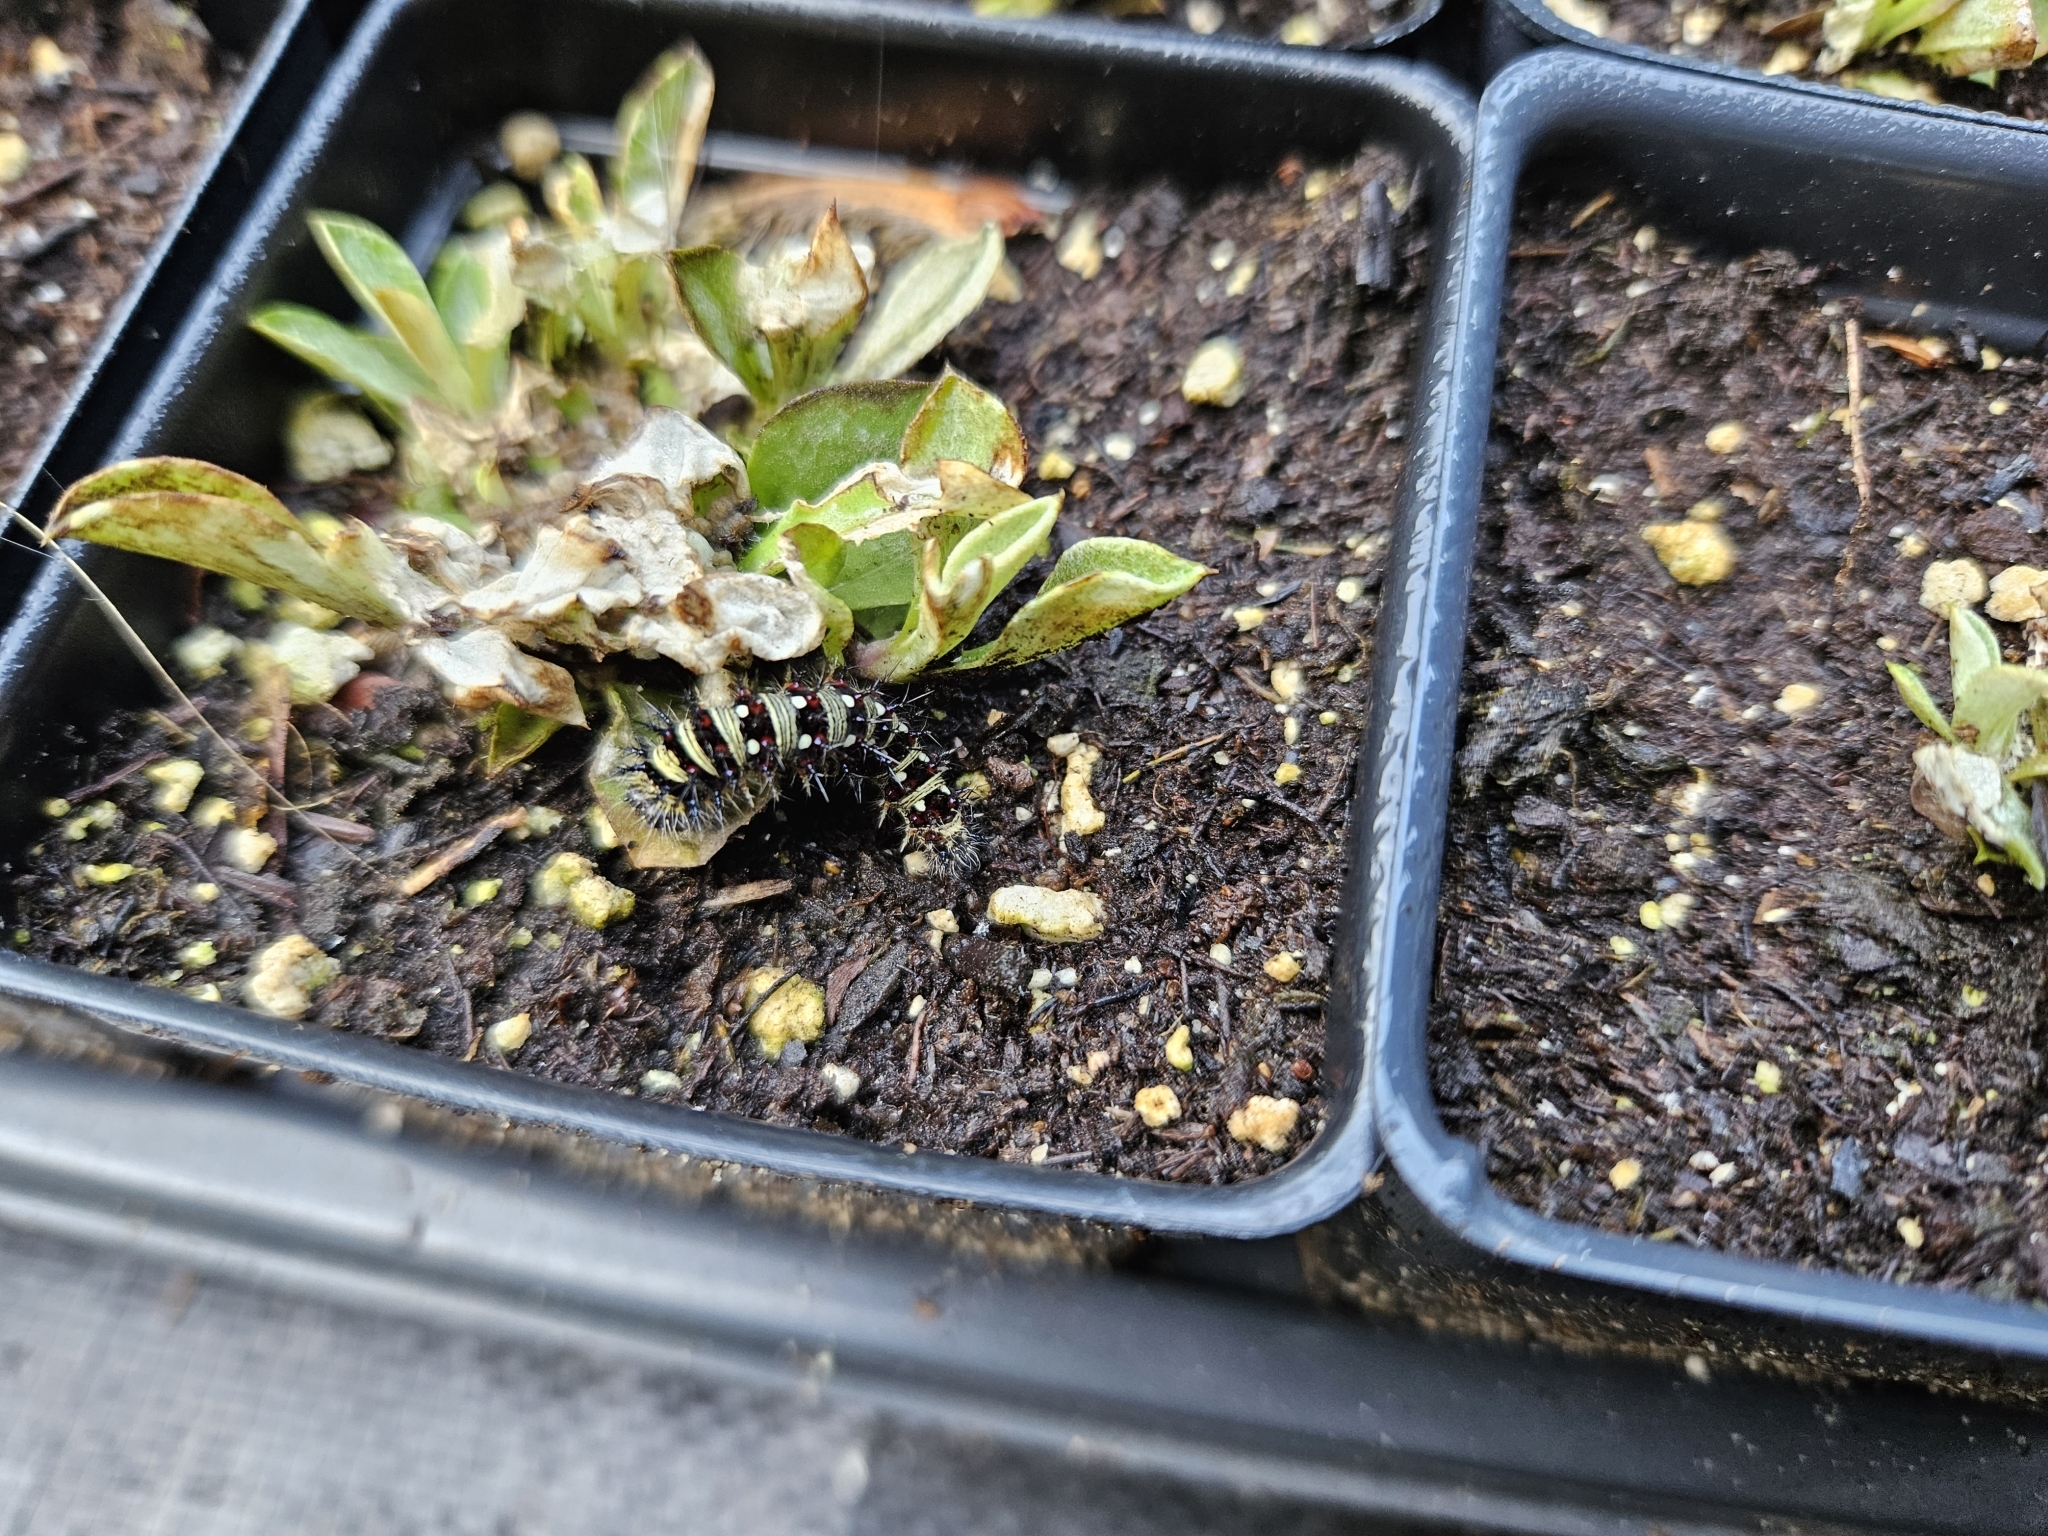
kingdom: Animalia
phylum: Arthropoda
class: Insecta
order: Lepidoptera
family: Nymphalidae
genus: Vanessa
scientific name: Vanessa virginiensis
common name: American lady
